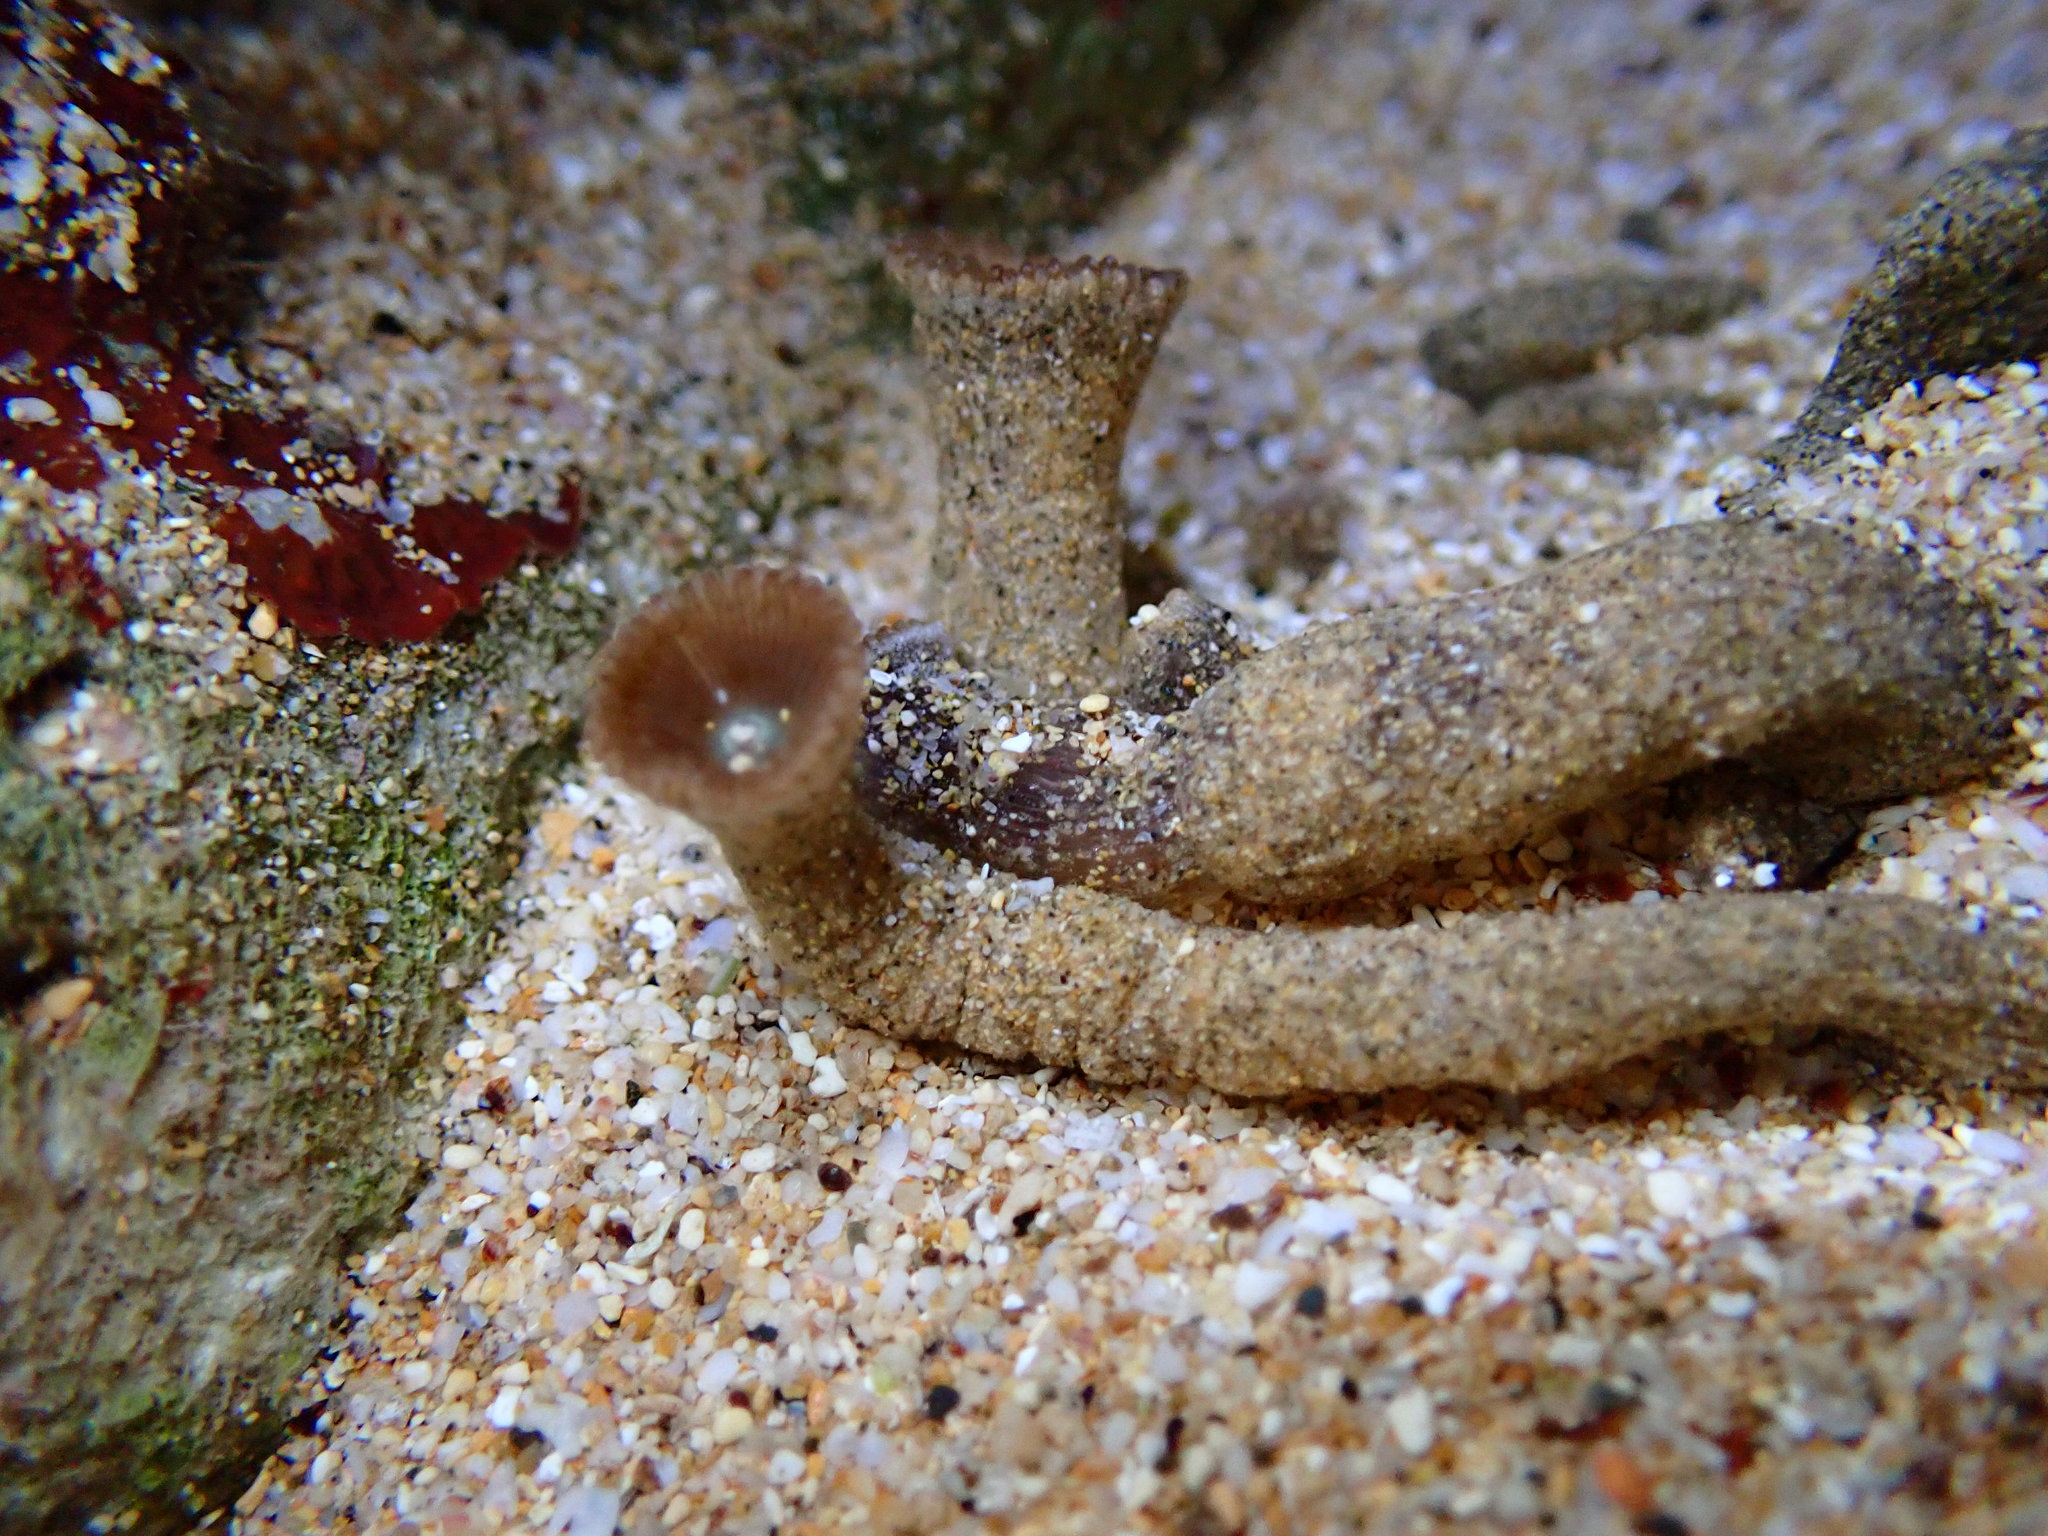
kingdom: Animalia
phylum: Cnidaria
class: Anthozoa
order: Zoantharia
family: Sphenopidae
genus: Palythoa
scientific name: Palythoa mutuki
